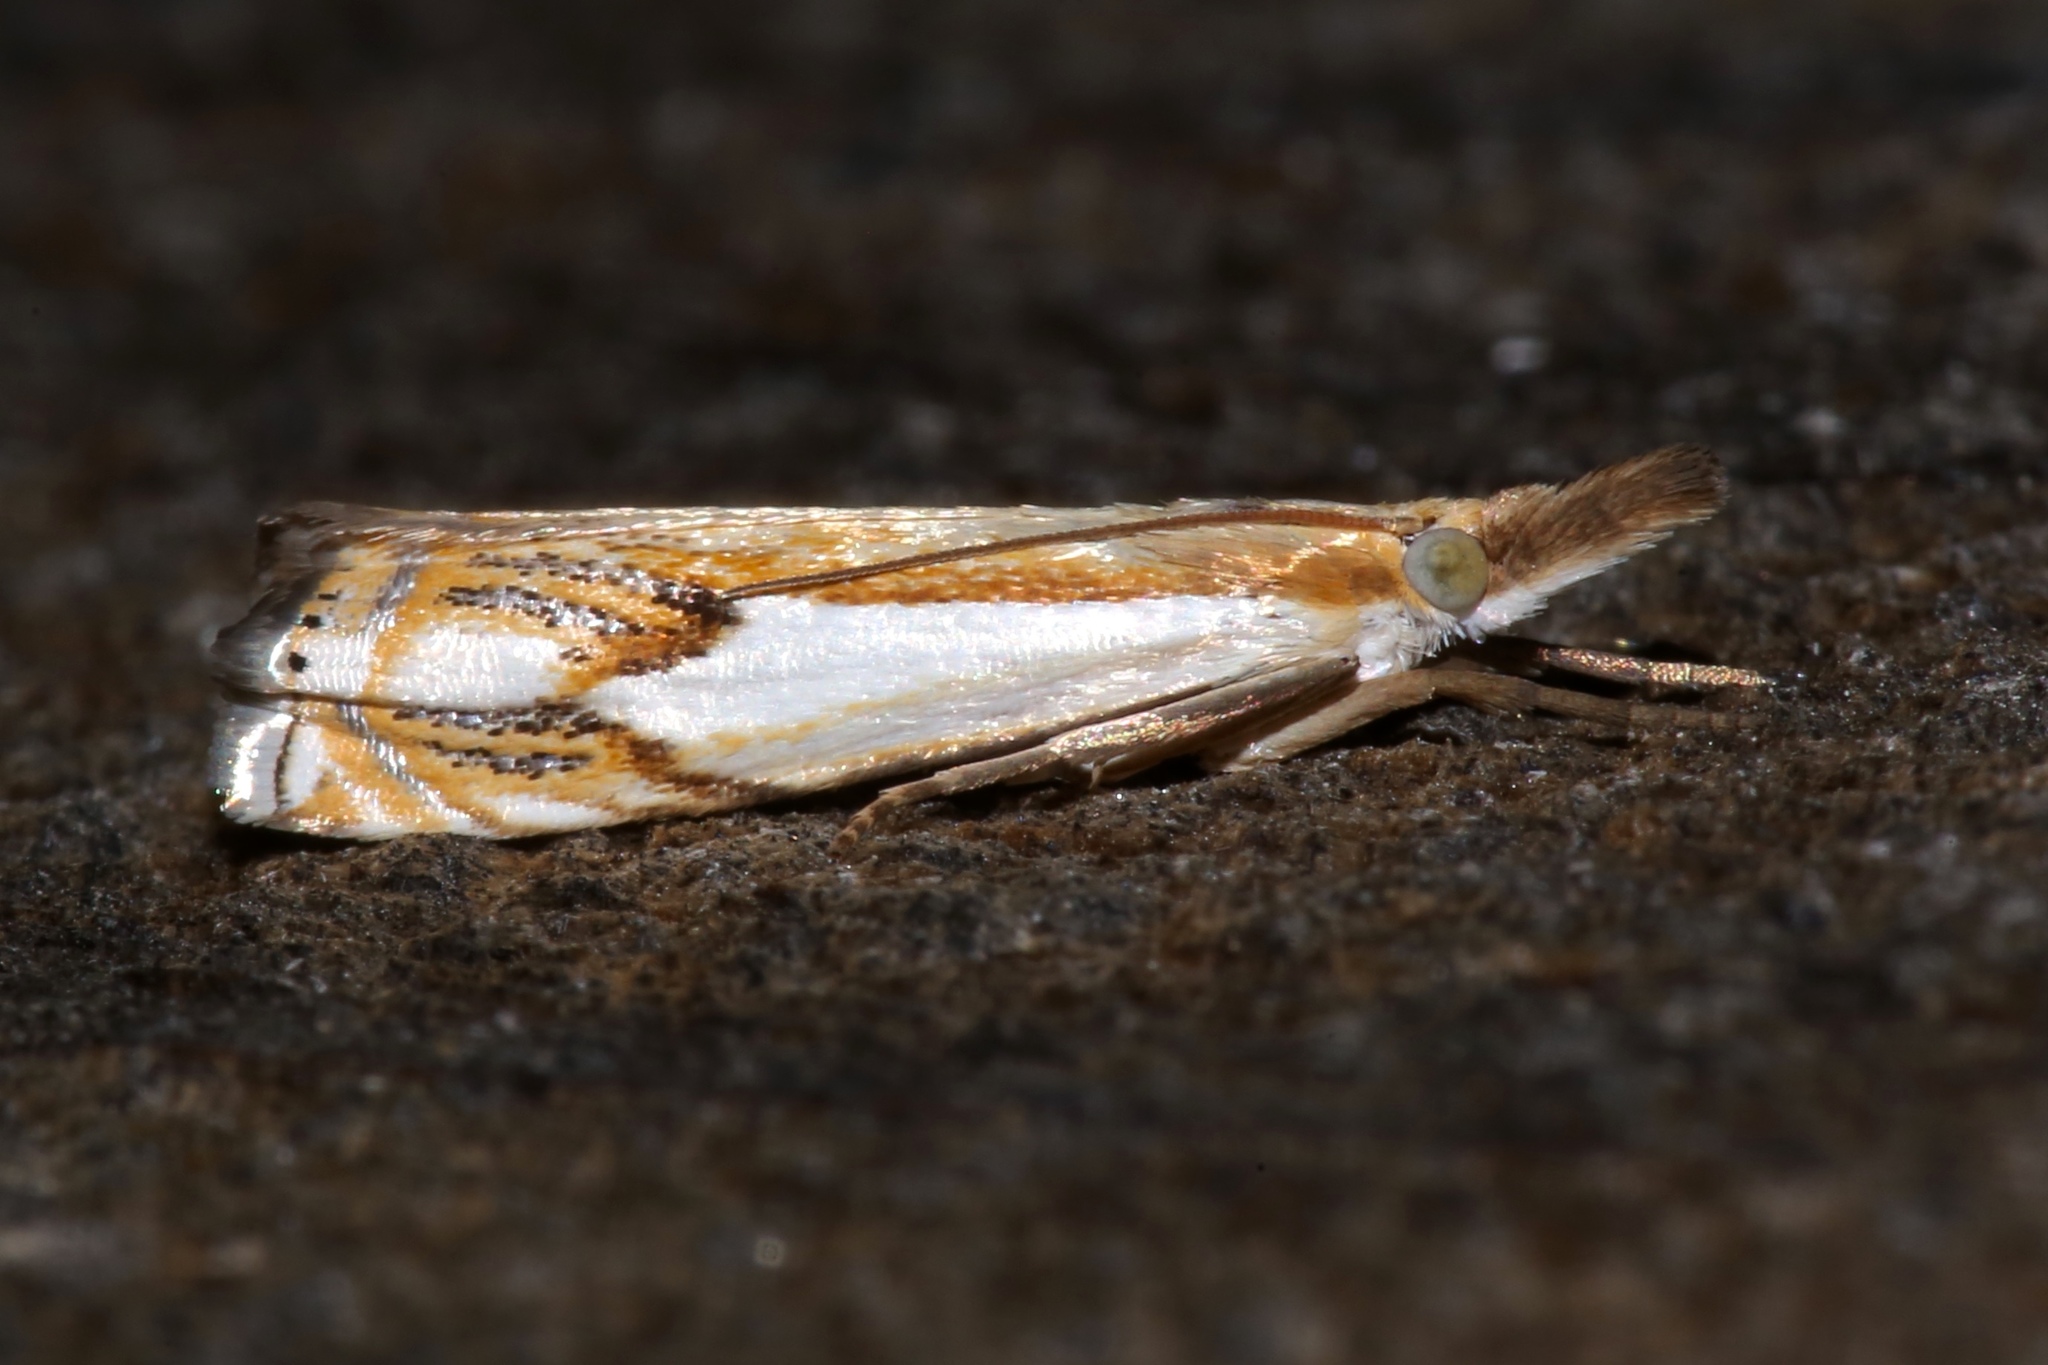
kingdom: Animalia
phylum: Arthropoda
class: Insecta
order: Lepidoptera
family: Crambidae
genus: Crambus
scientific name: Crambus agitatellus
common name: Double-banded grass-veneer
